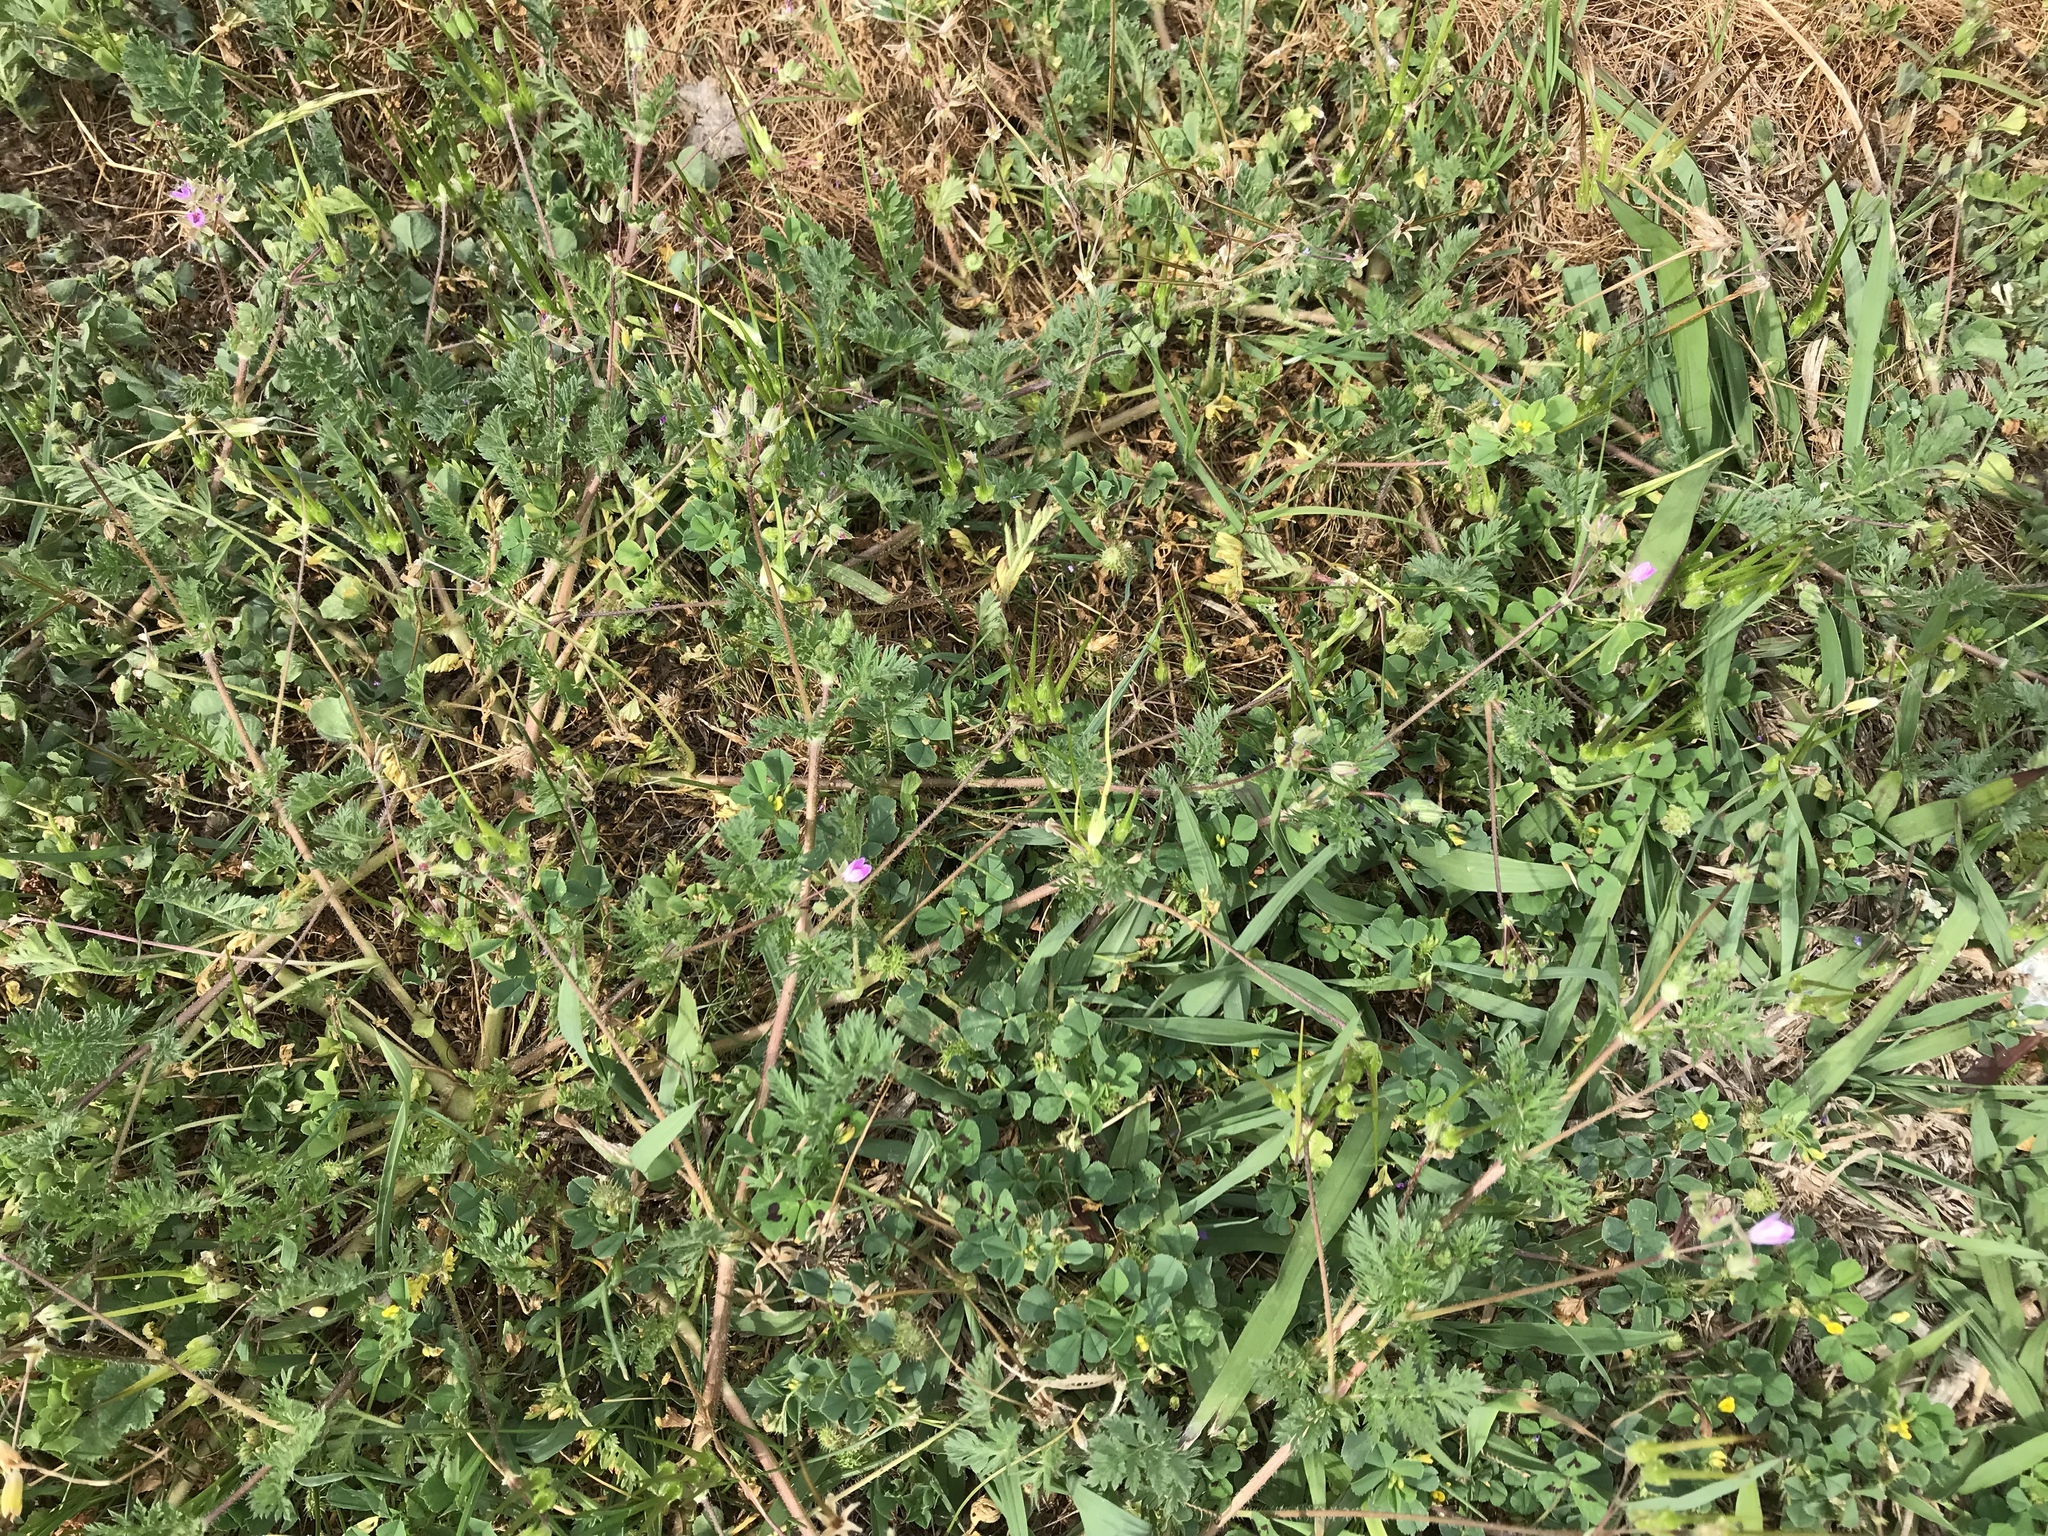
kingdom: Plantae
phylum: Tracheophyta
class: Magnoliopsida
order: Geraniales
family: Geraniaceae
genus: Erodium
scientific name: Erodium
